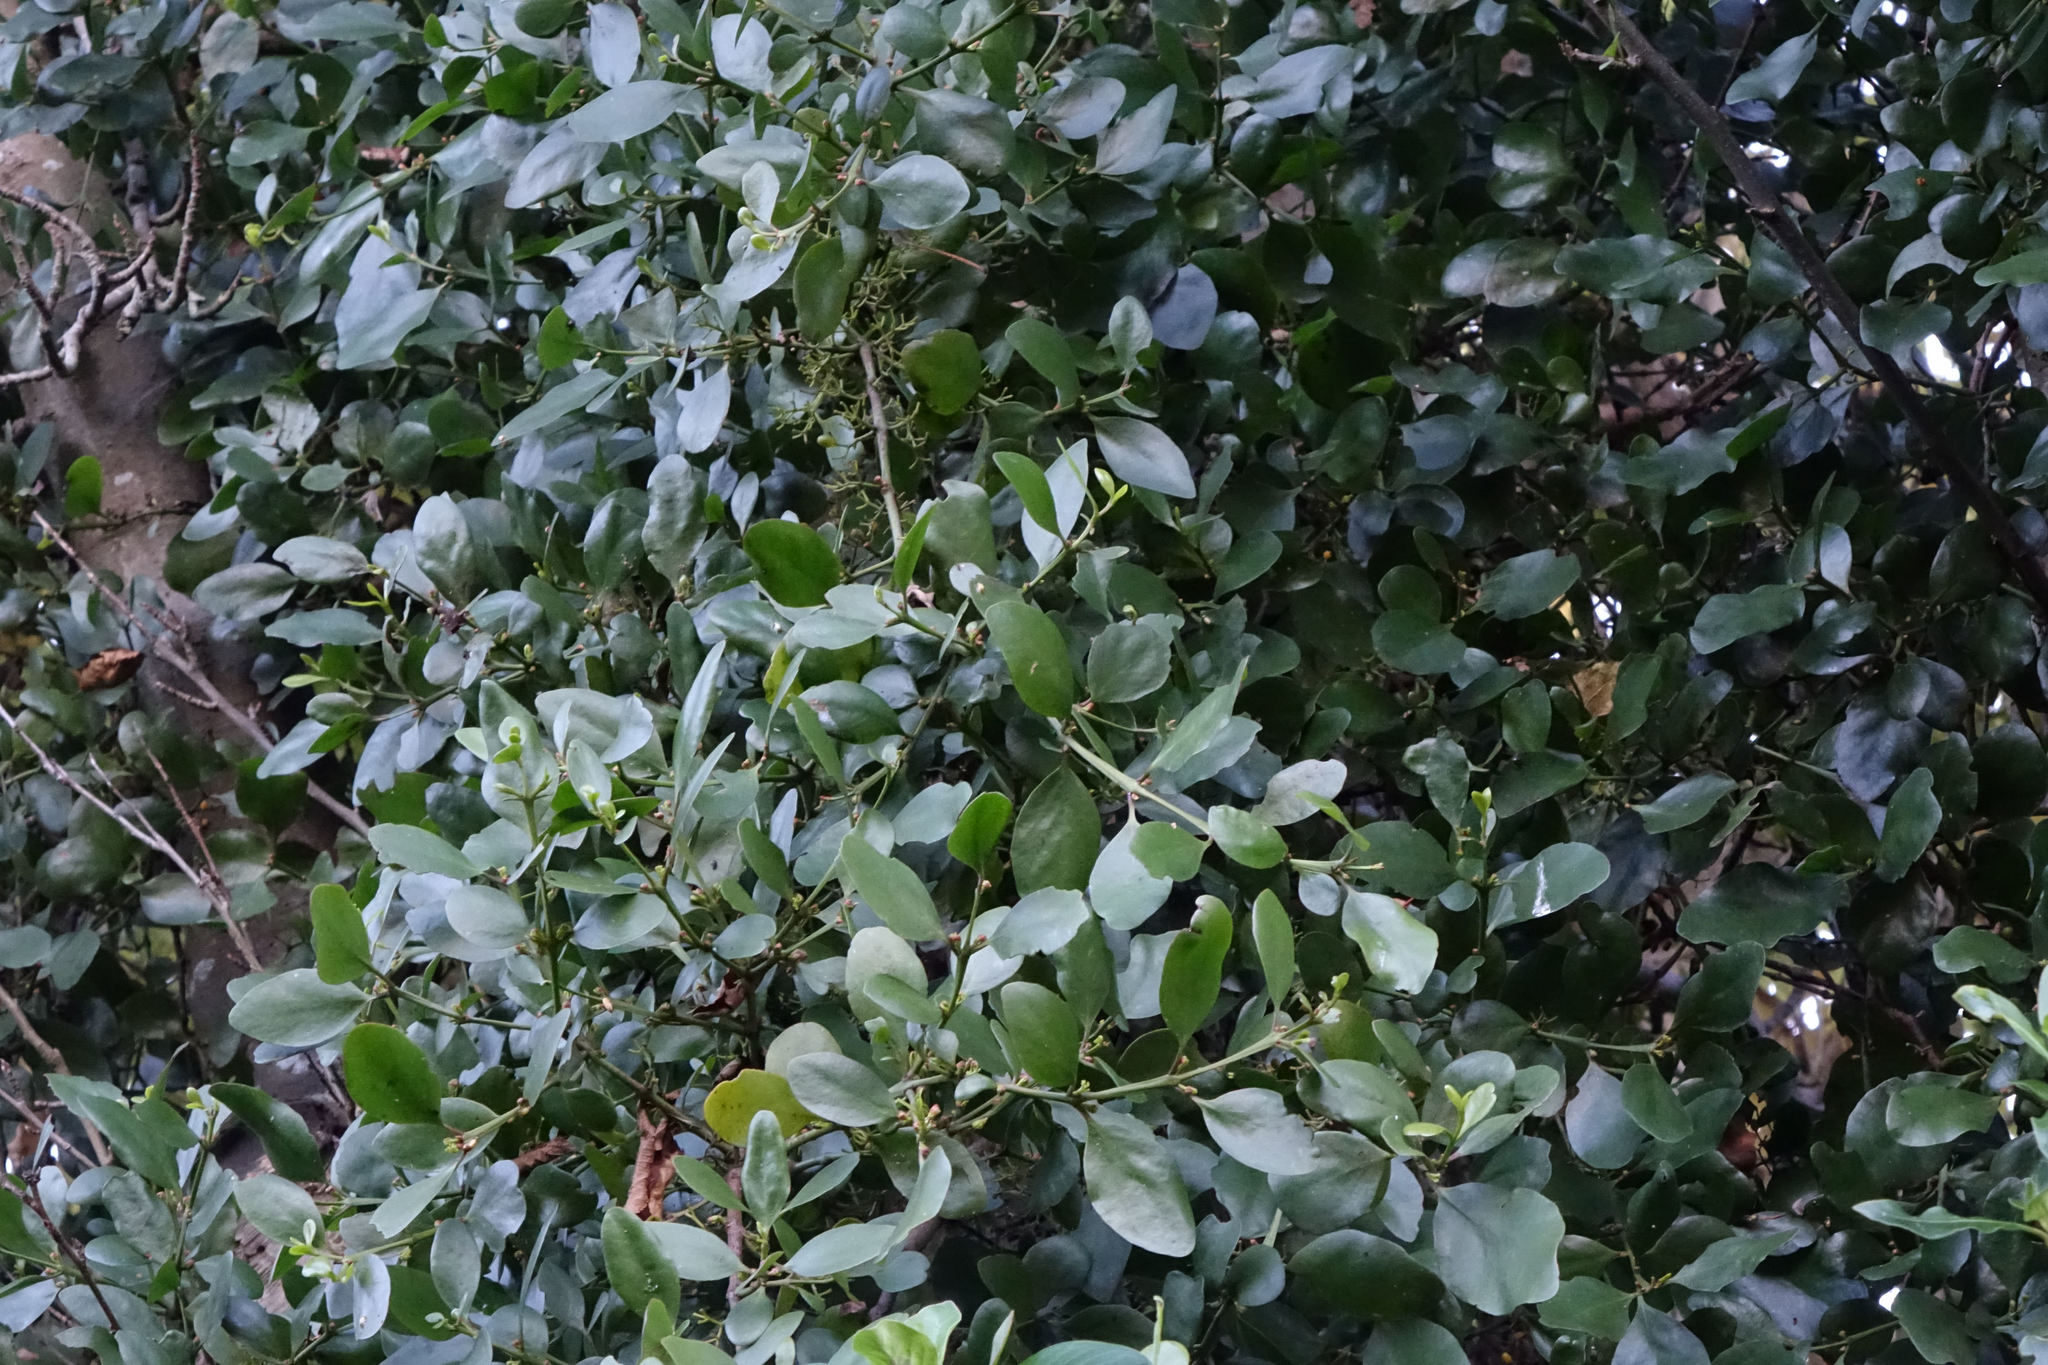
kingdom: Plantae
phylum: Tracheophyta
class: Magnoliopsida
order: Santalales
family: Loranthaceae
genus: Ileostylus
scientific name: Ileostylus micranthus
